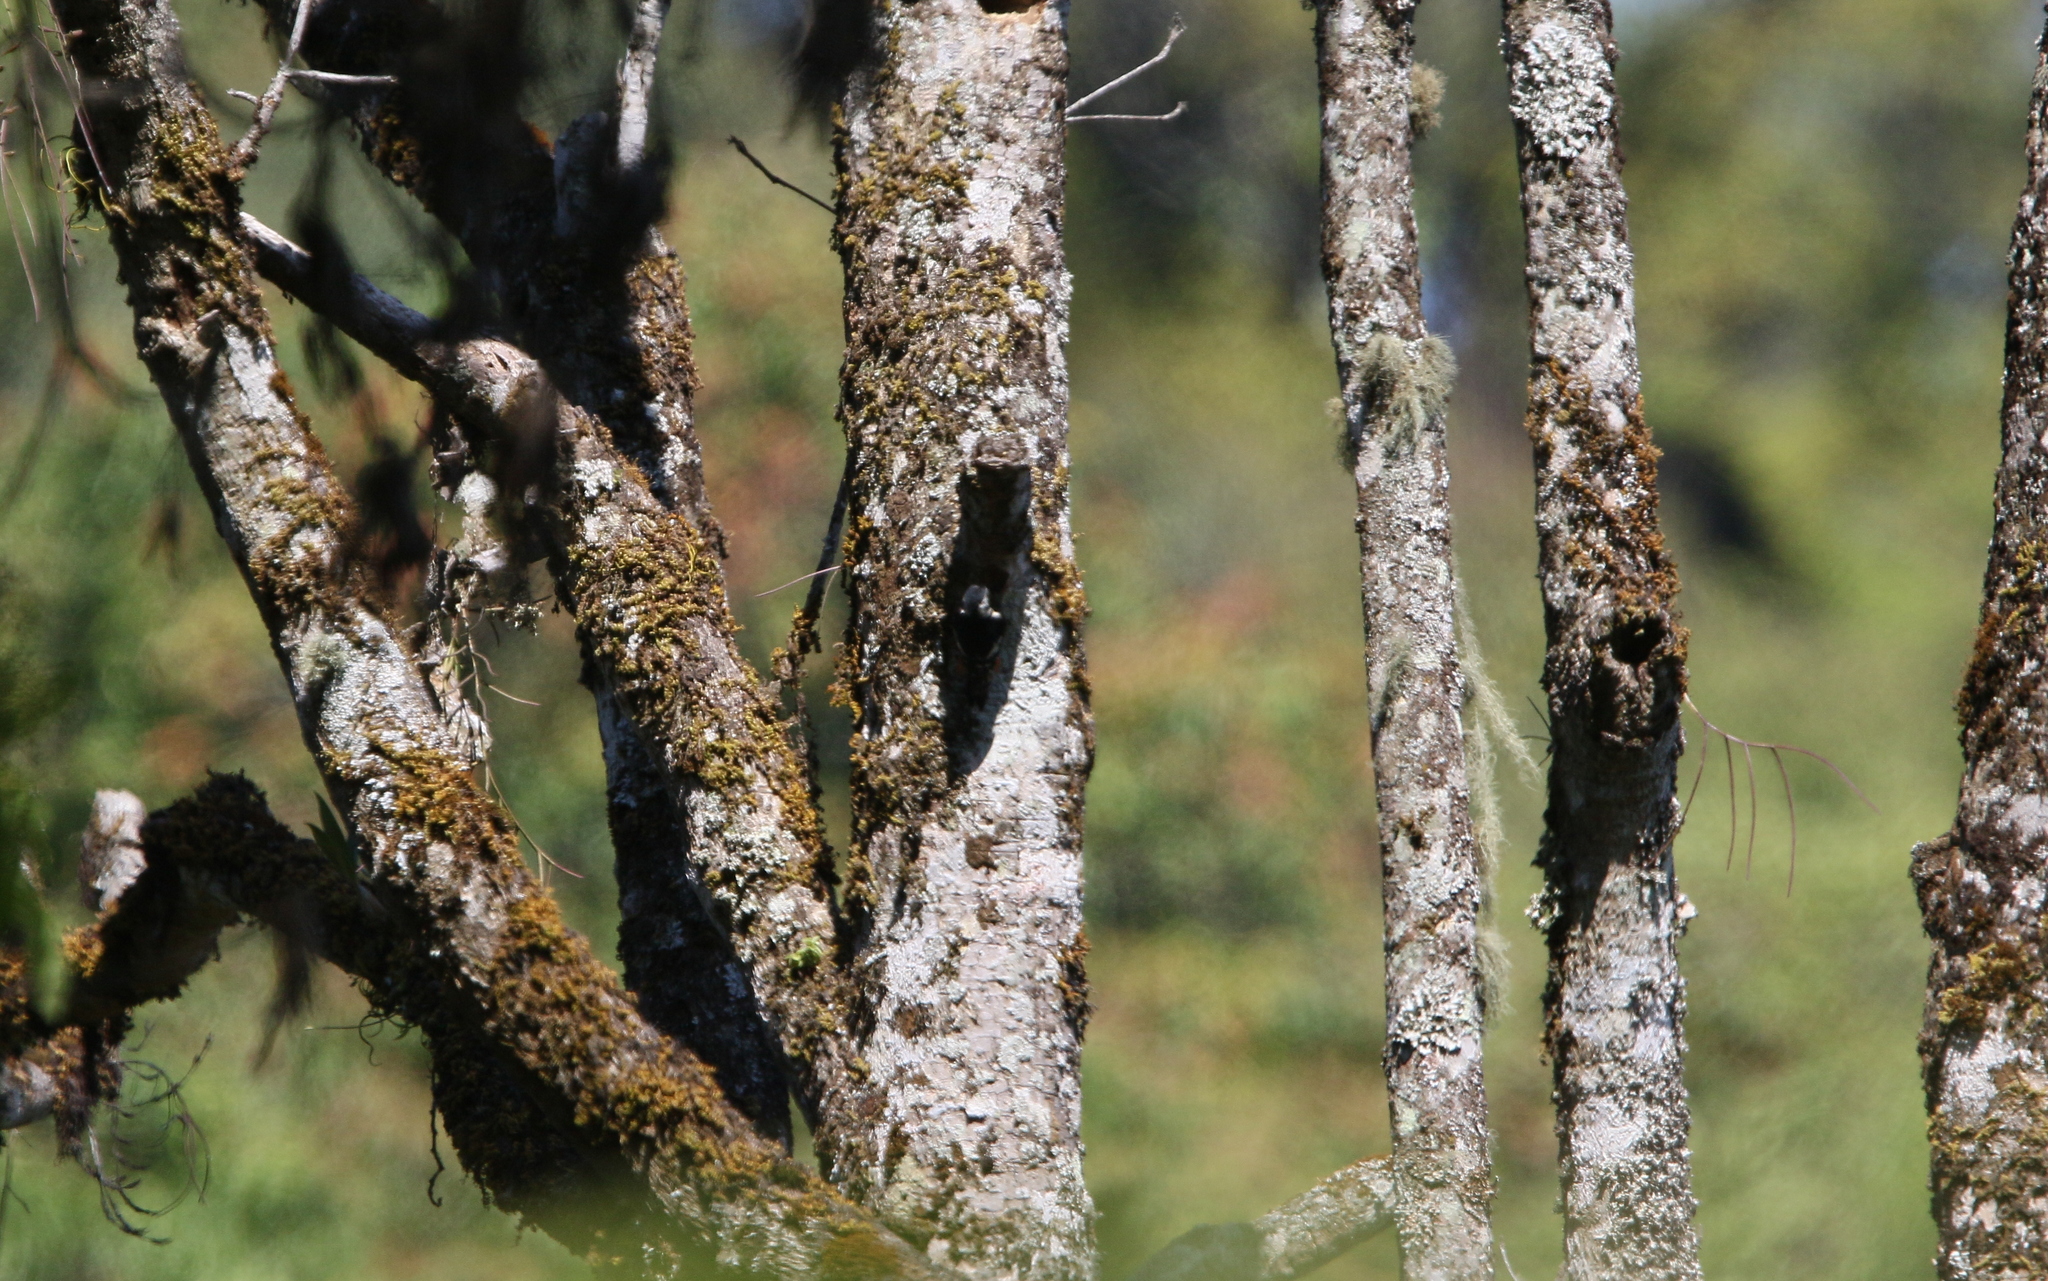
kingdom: Animalia
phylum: Chordata
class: Aves
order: Piciformes
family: Picidae
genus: Dryobates
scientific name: Dryobates cathpharius
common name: Crimson-breasted woodpecker
